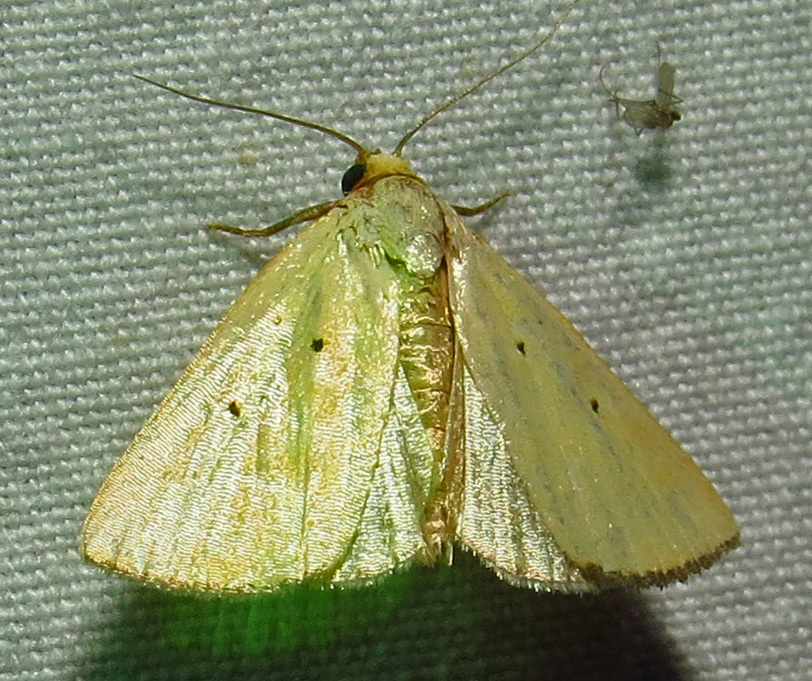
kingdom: Animalia
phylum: Arthropoda
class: Insecta
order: Lepidoptera
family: Noctuidae
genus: Marimatha
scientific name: Marimatha nigrofimbria
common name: Black-bordered lemon moth
